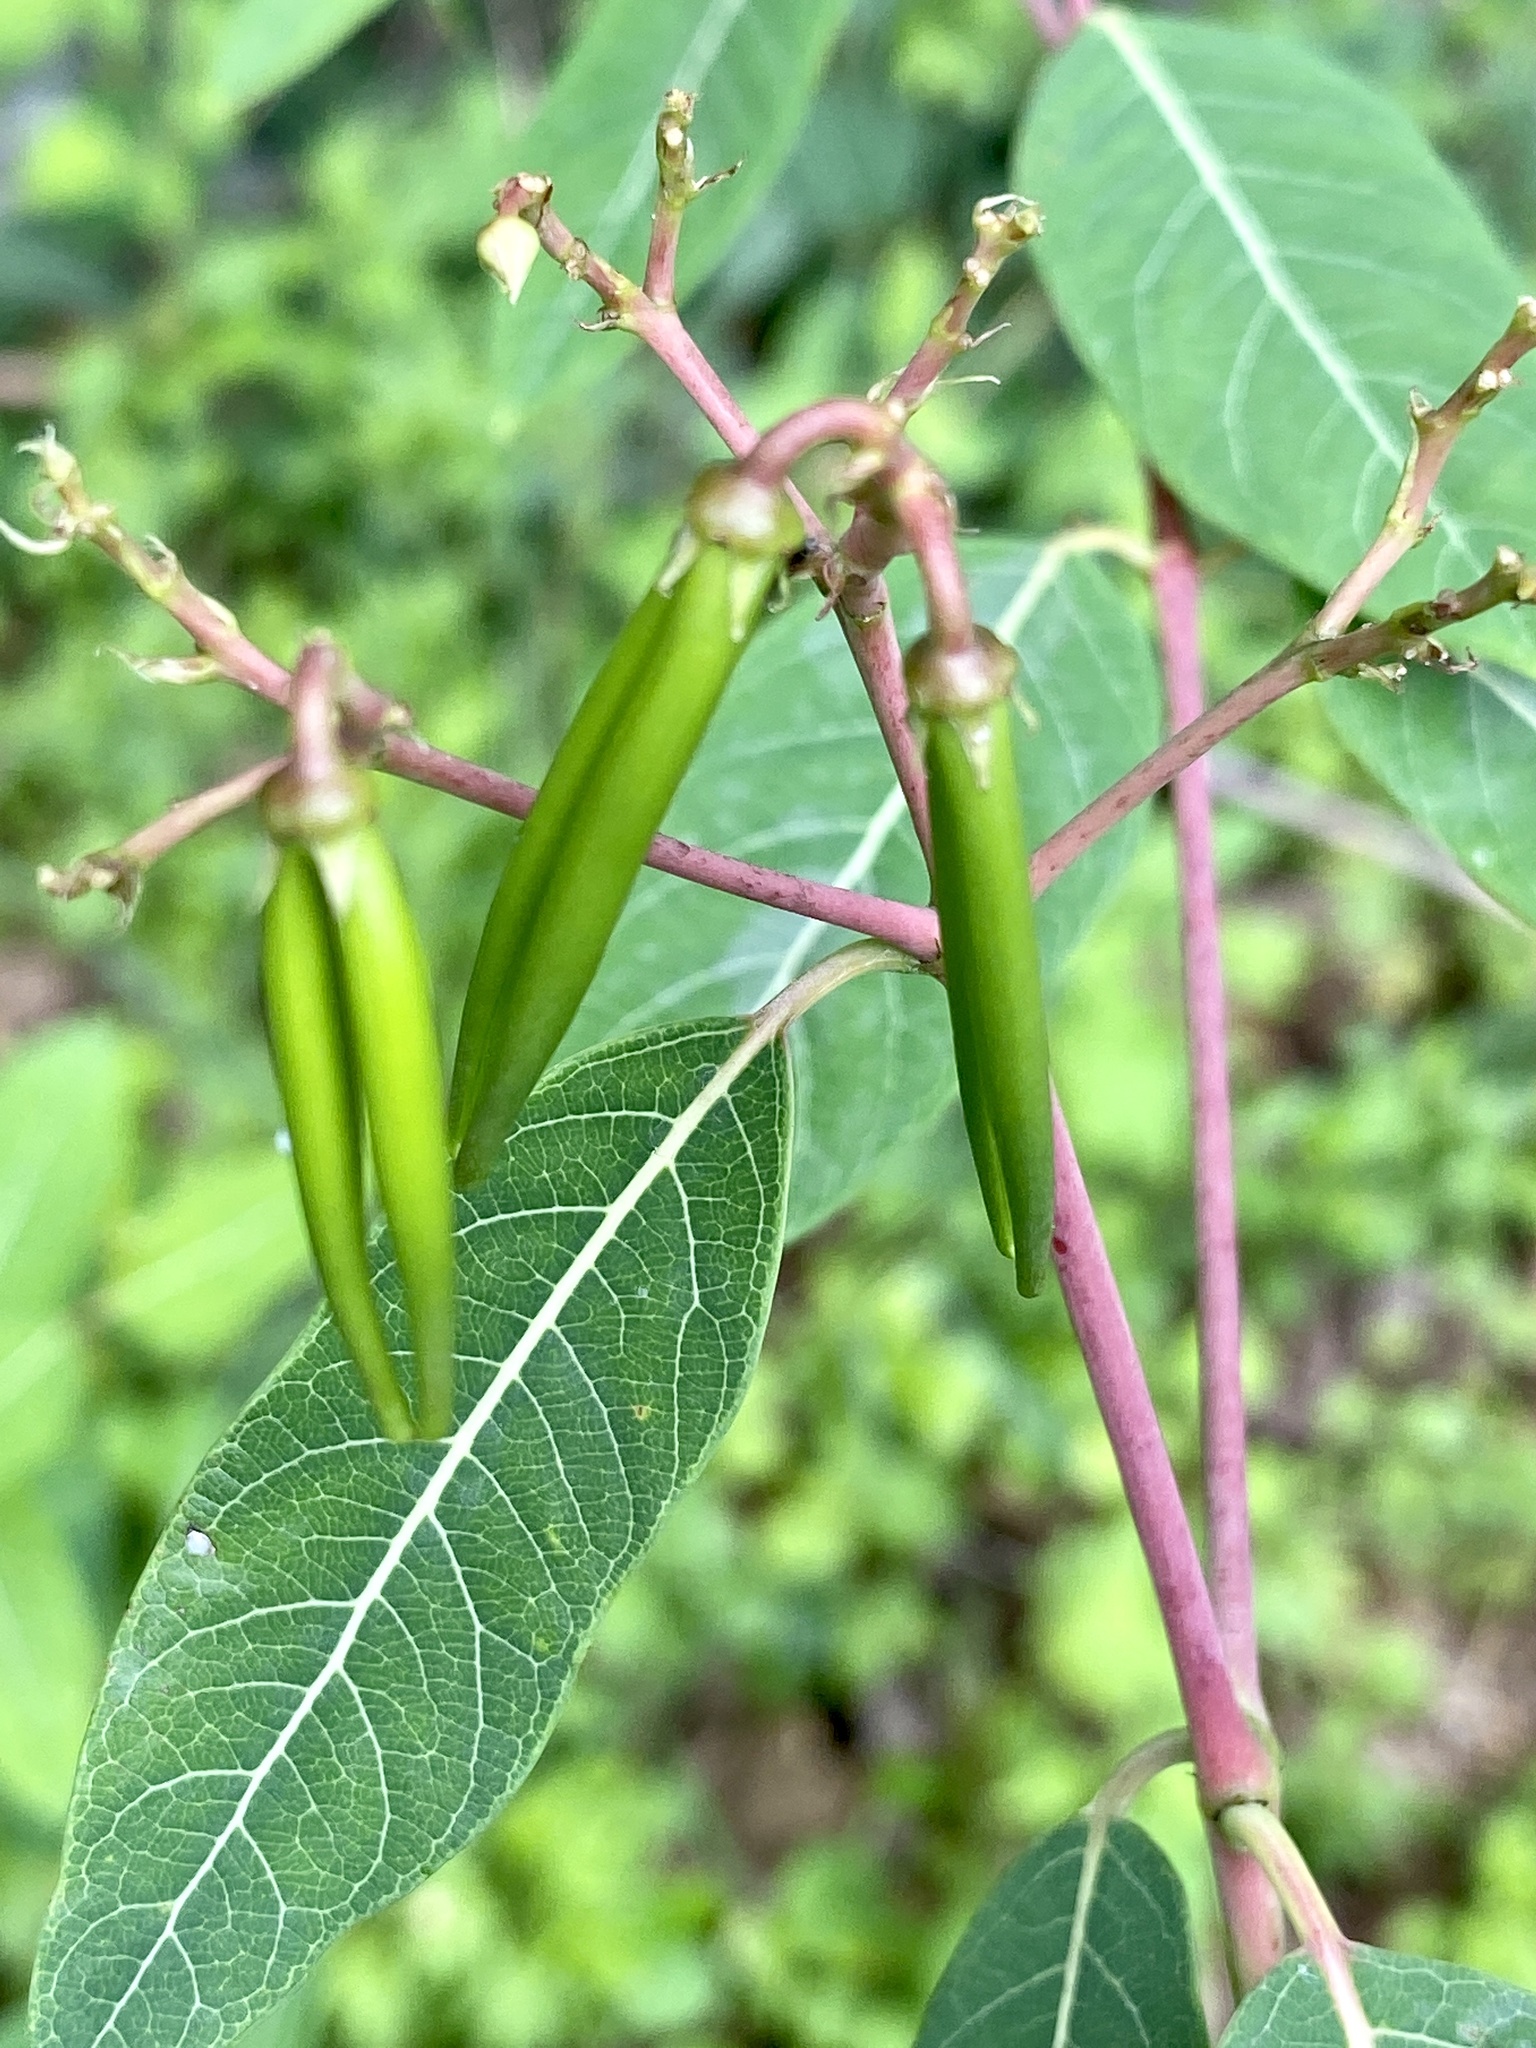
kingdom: Plantae
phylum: Tracheophyta
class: Magnoliopsida
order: Gentianales
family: Apocynaceae
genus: Apocynum
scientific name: Apocynum cannabinum
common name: Hemp dogbane
